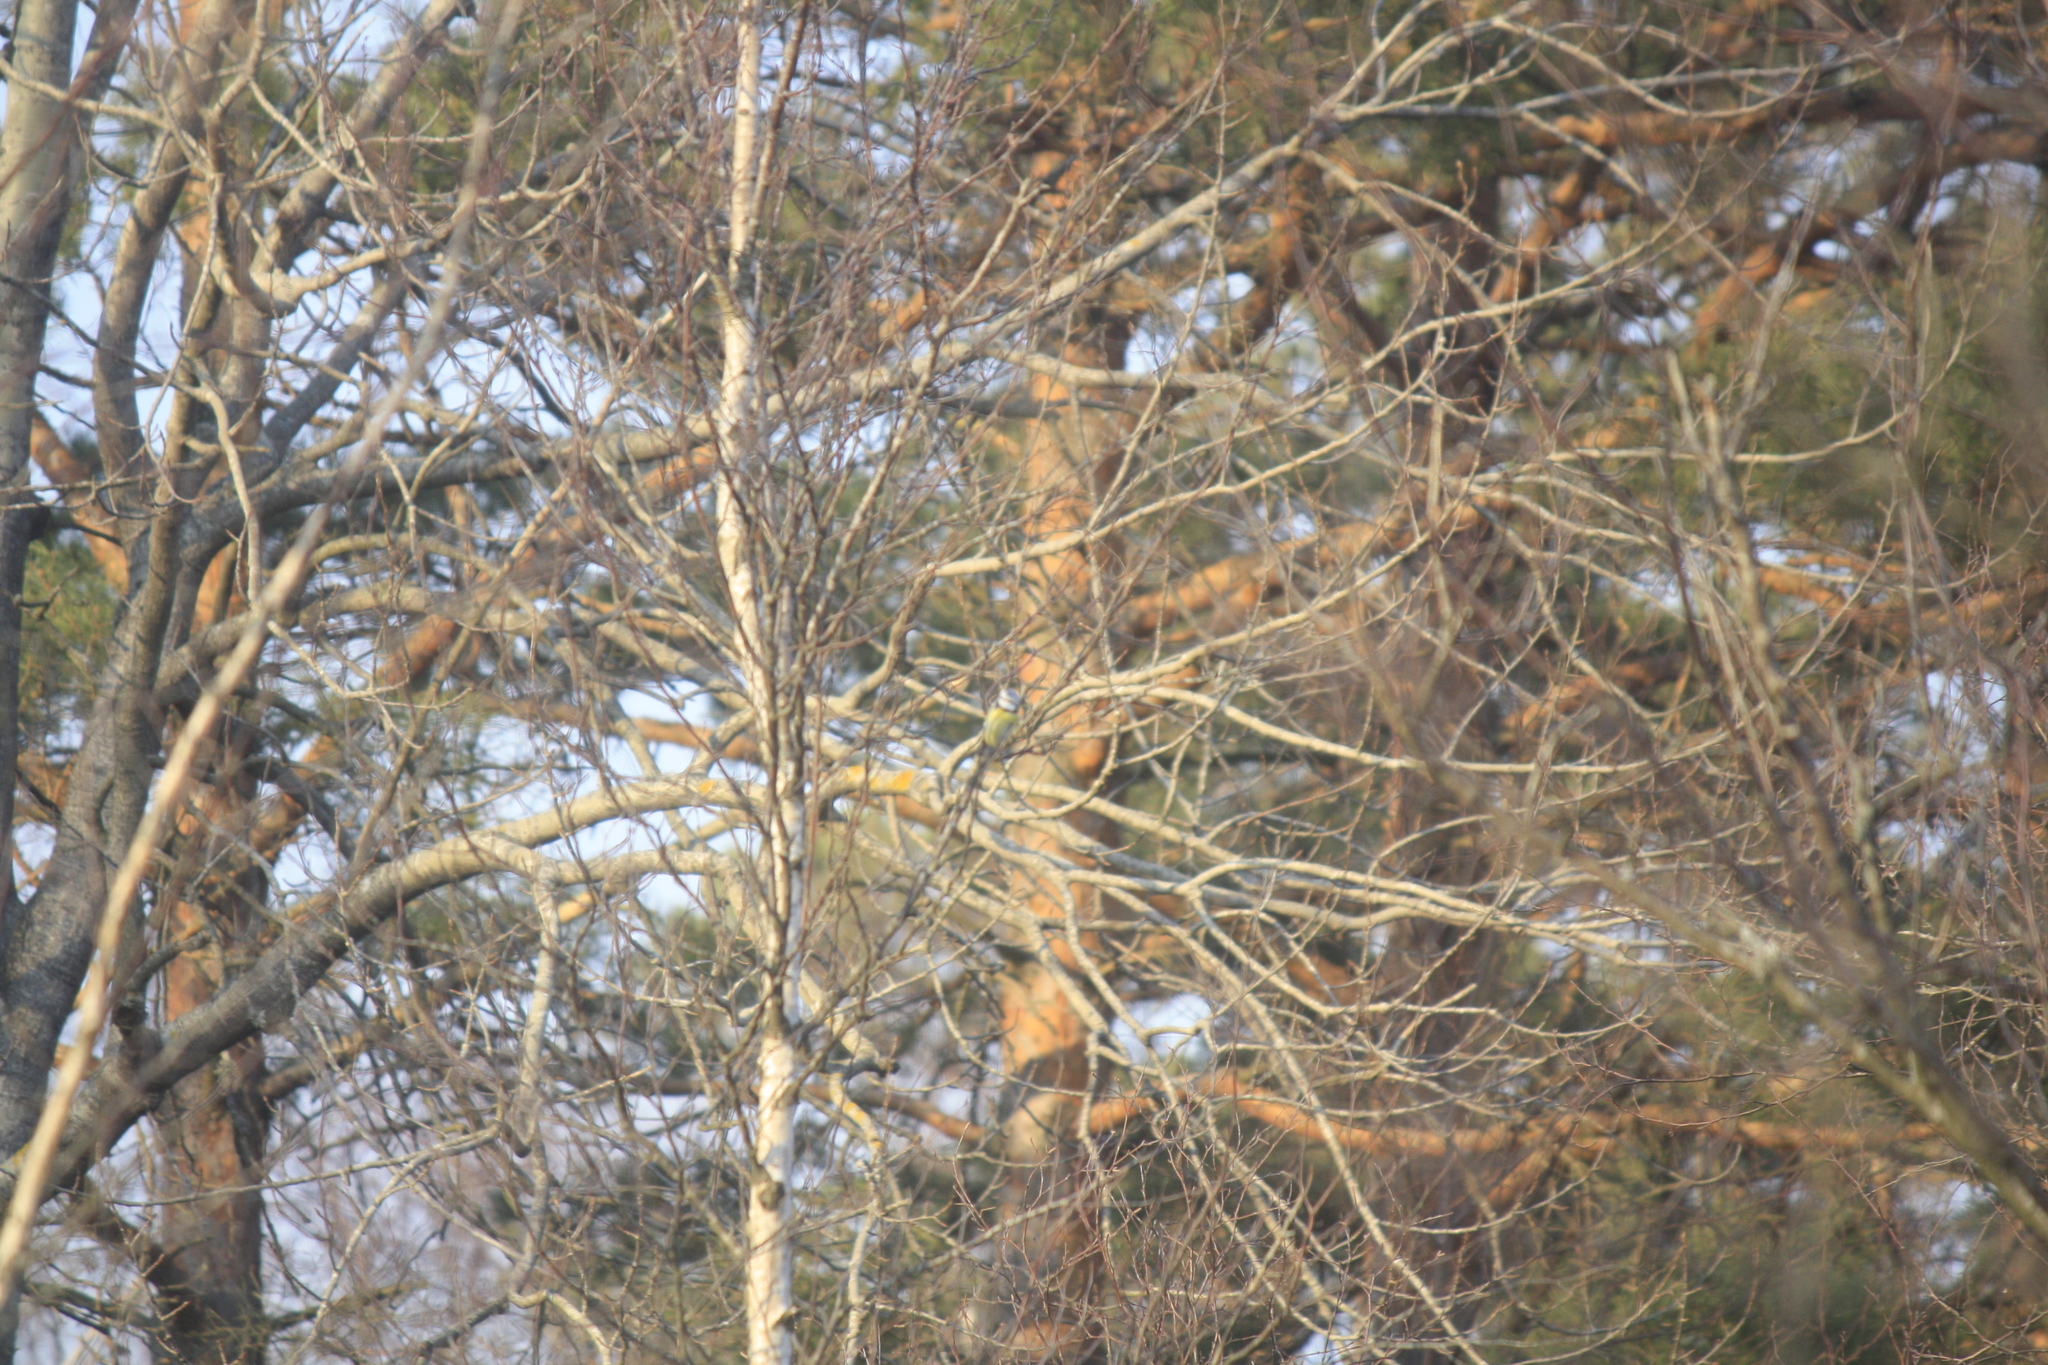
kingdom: Animalia
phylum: Chordata
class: Aves
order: Passeriformes
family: Paridae
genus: Cyanistes
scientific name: Cyanistes caeruleus
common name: Eurasian blue tit
